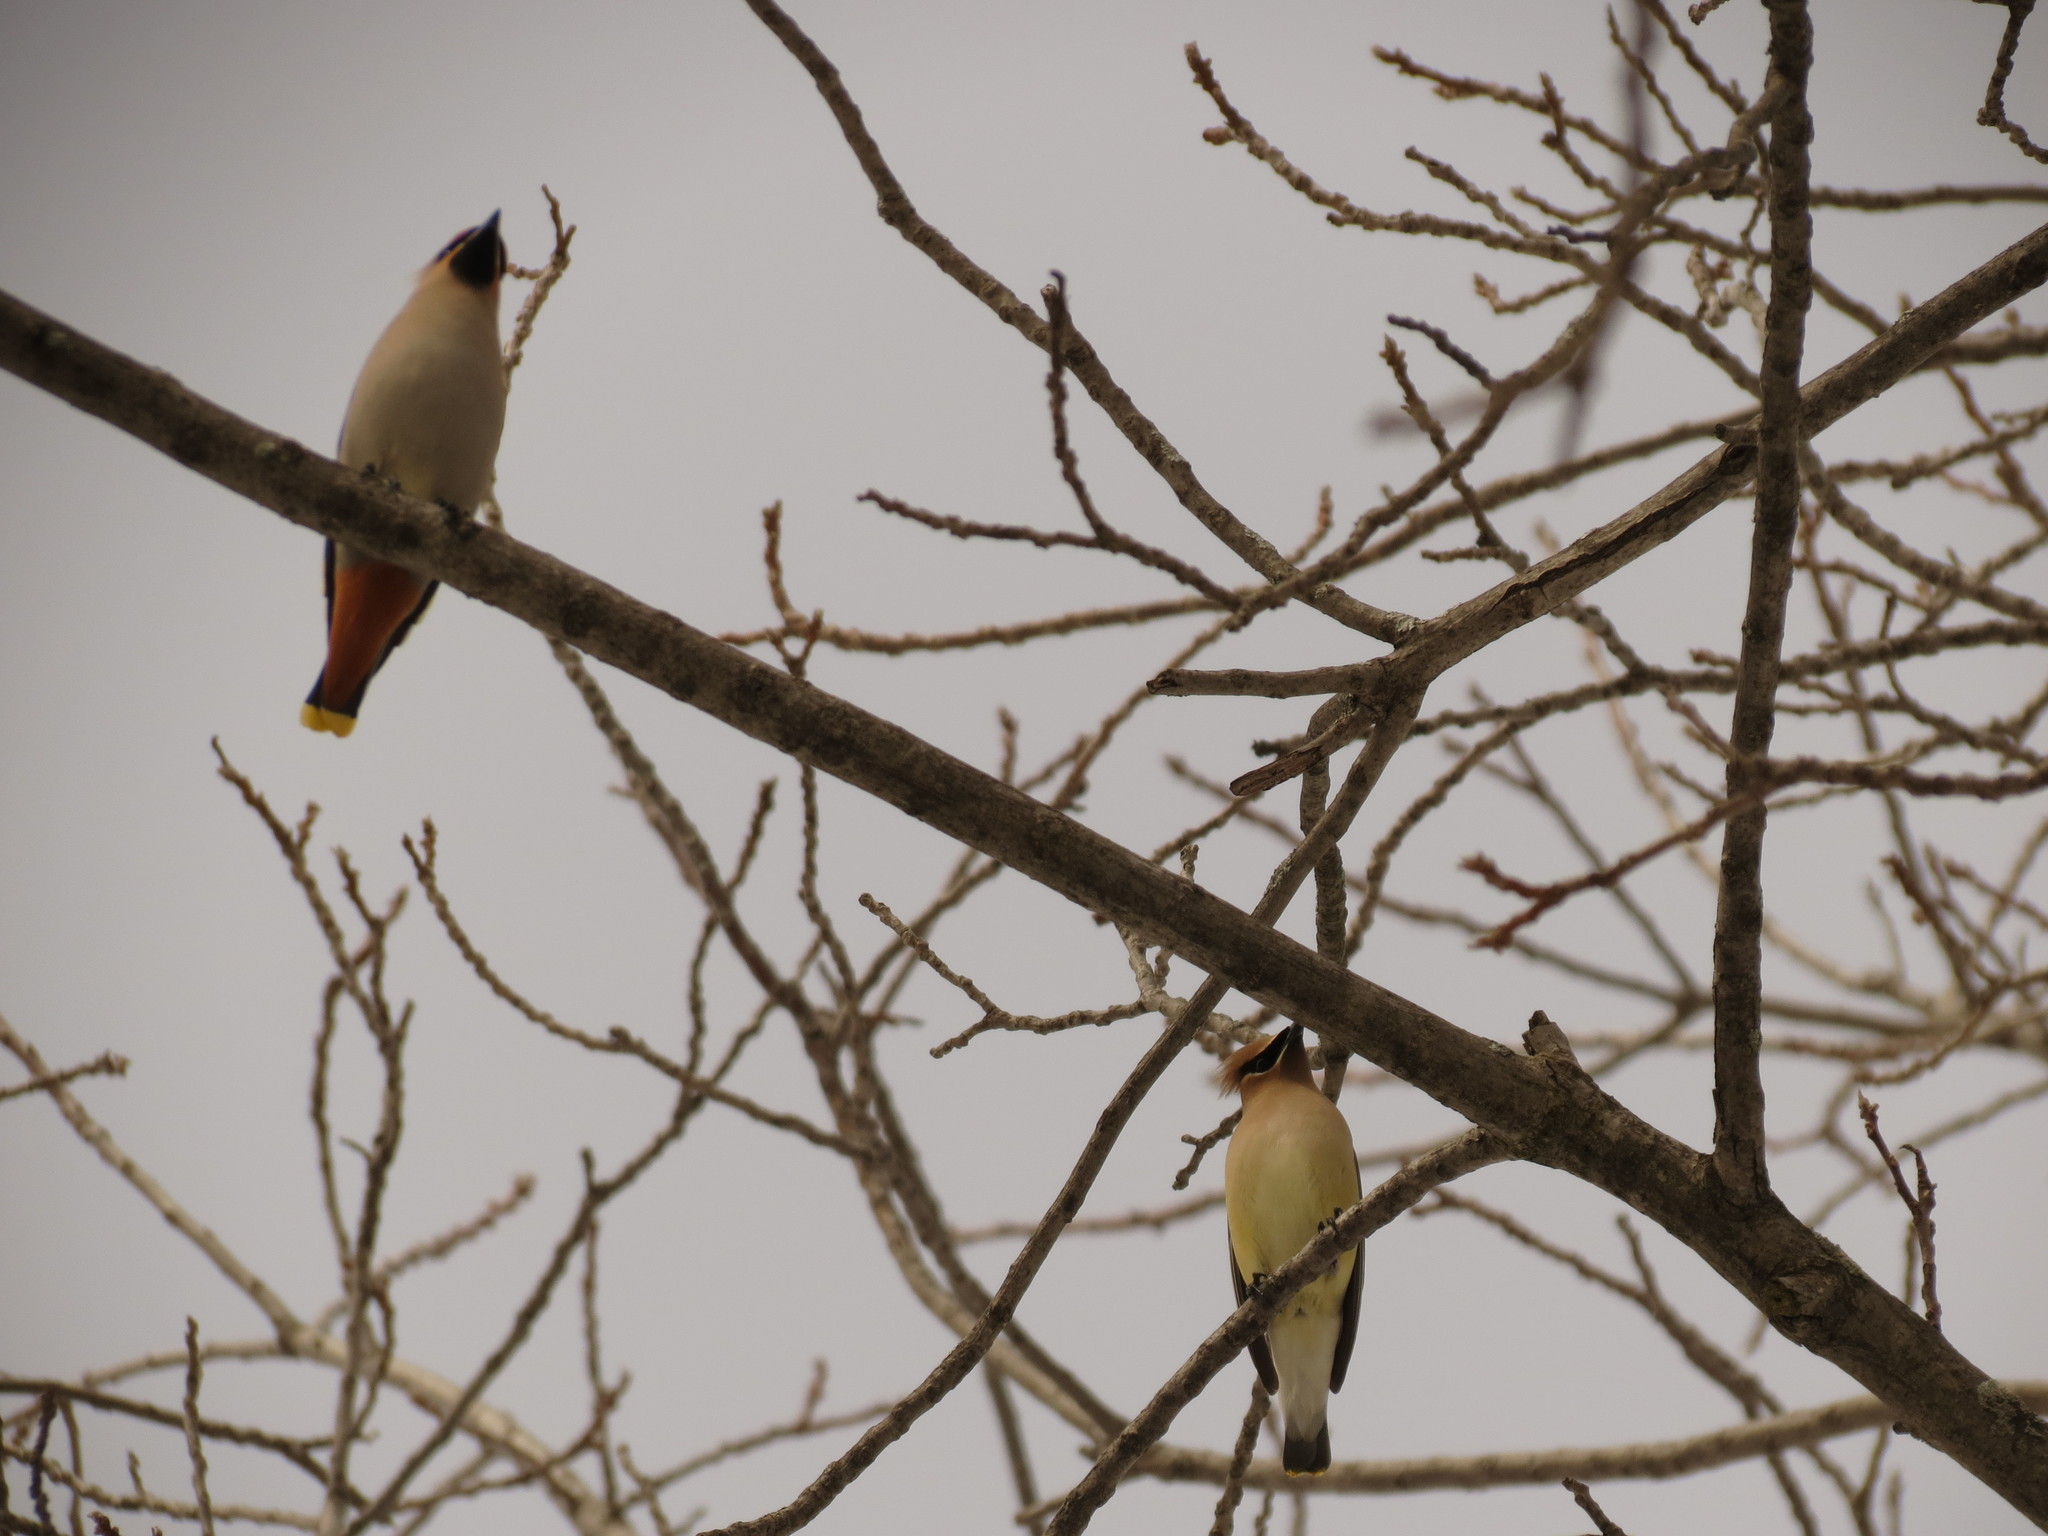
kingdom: Animalia
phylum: Chordata
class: Aves
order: Passeriformes
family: Bombycillidae
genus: Bombycilla
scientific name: Bombycilla cedrorum
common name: Cedar waxwing
